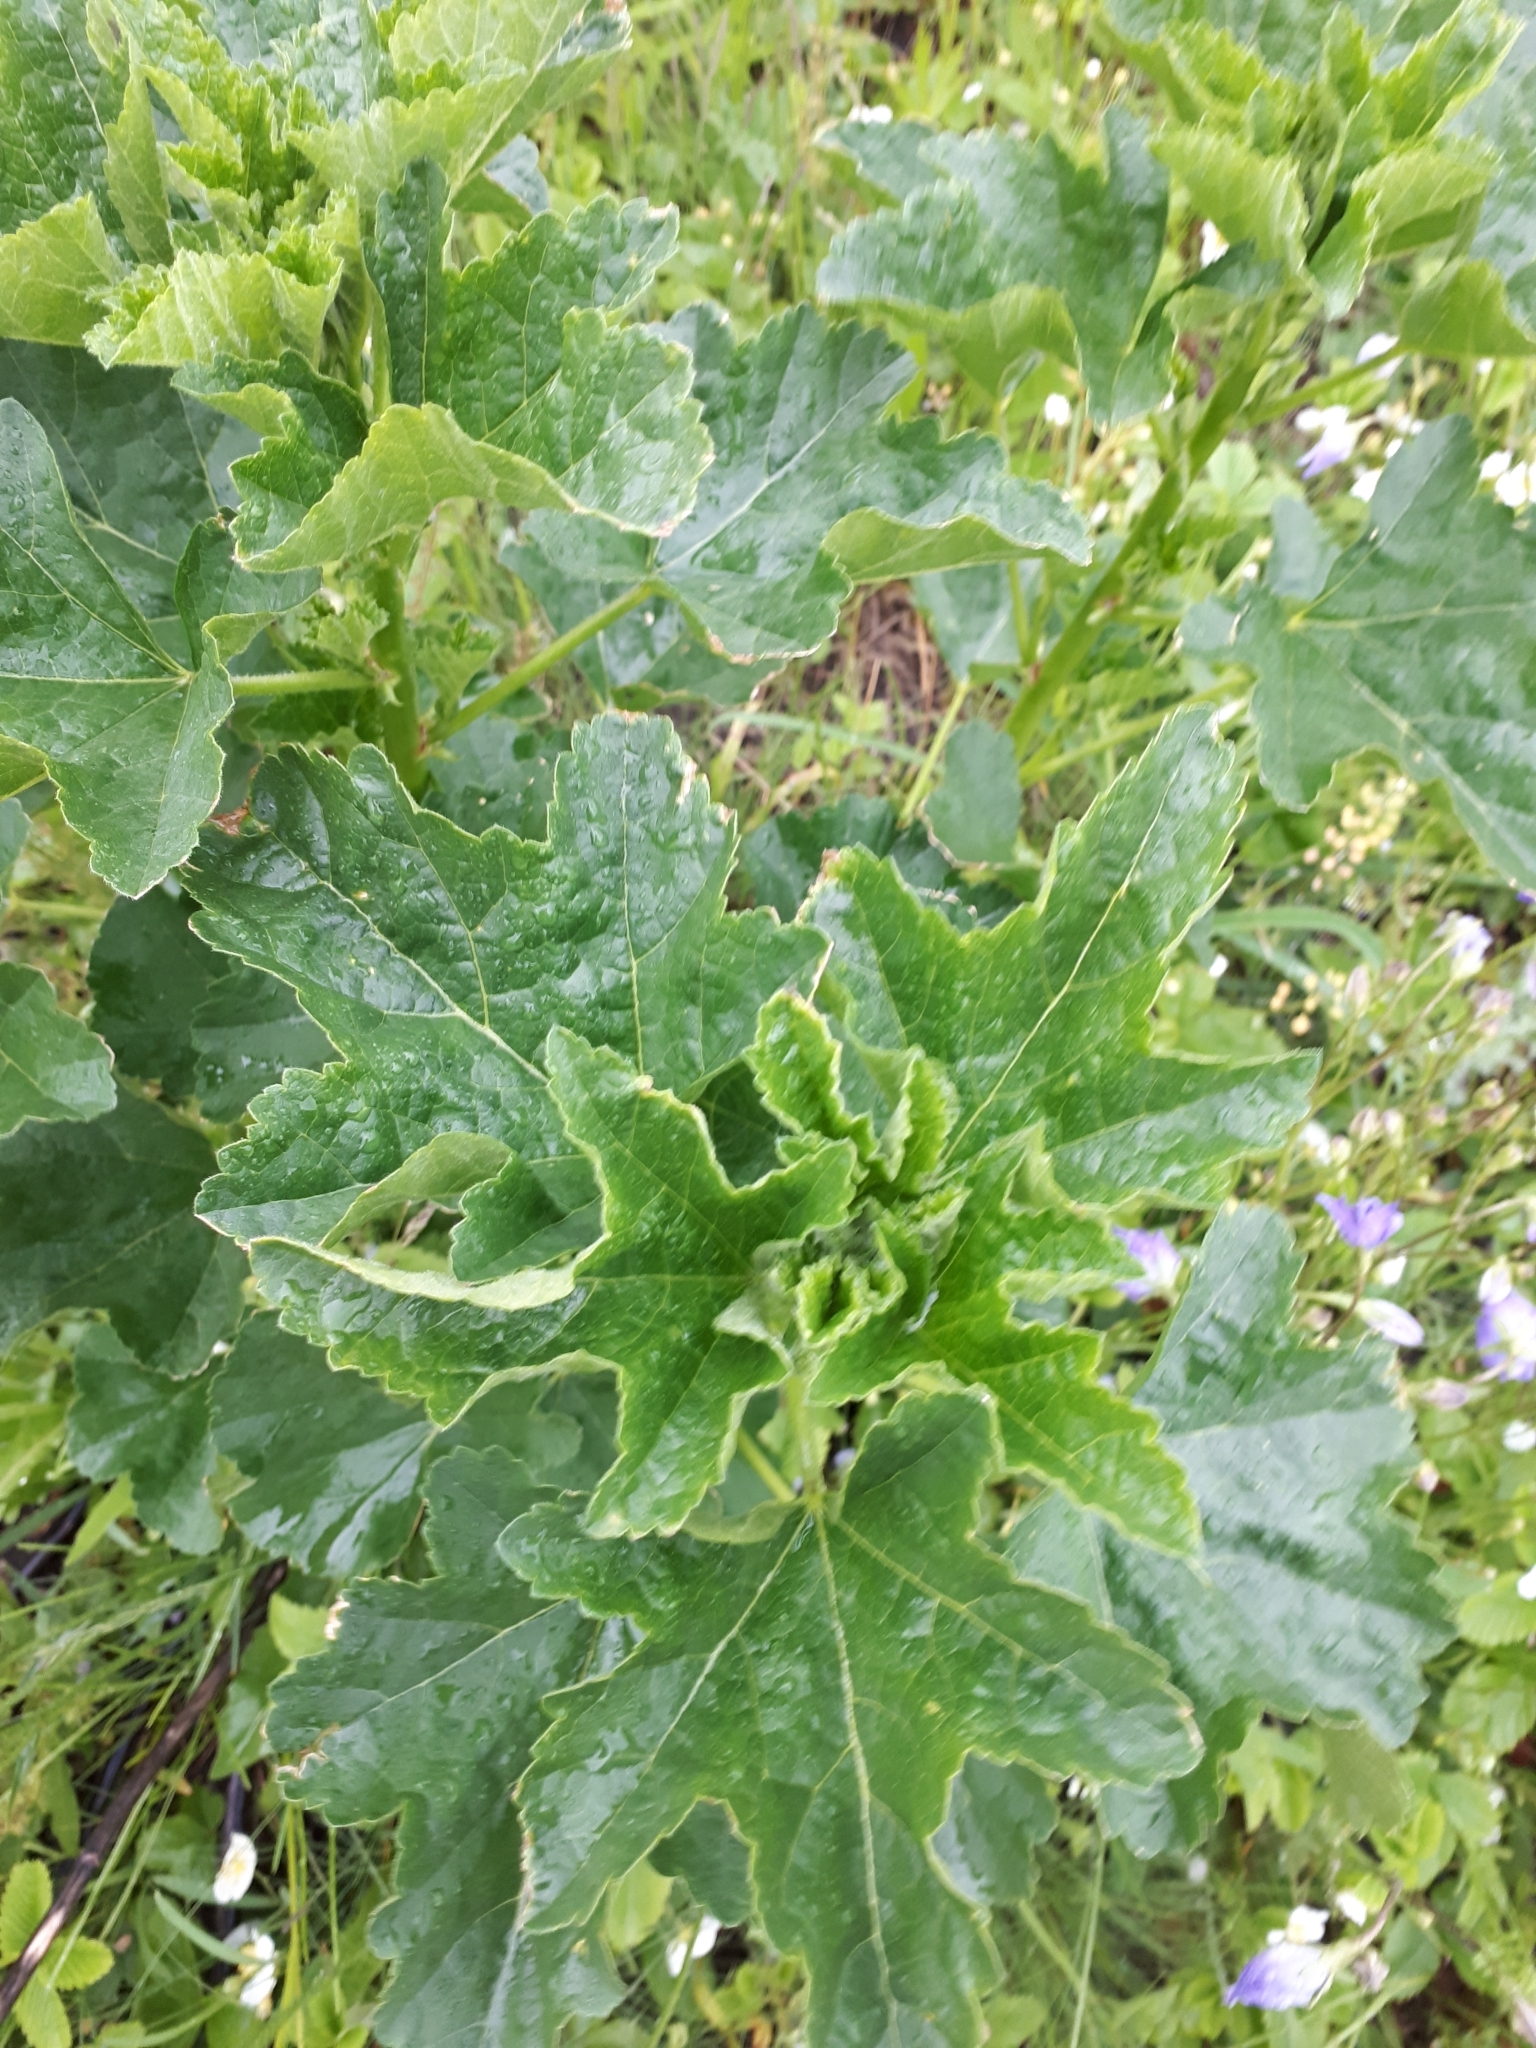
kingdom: Plantae
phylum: Tracheophyta
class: Magnoliopsida
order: Malvales
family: Malvaceae
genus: Malva
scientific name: Malva thuringiaca
